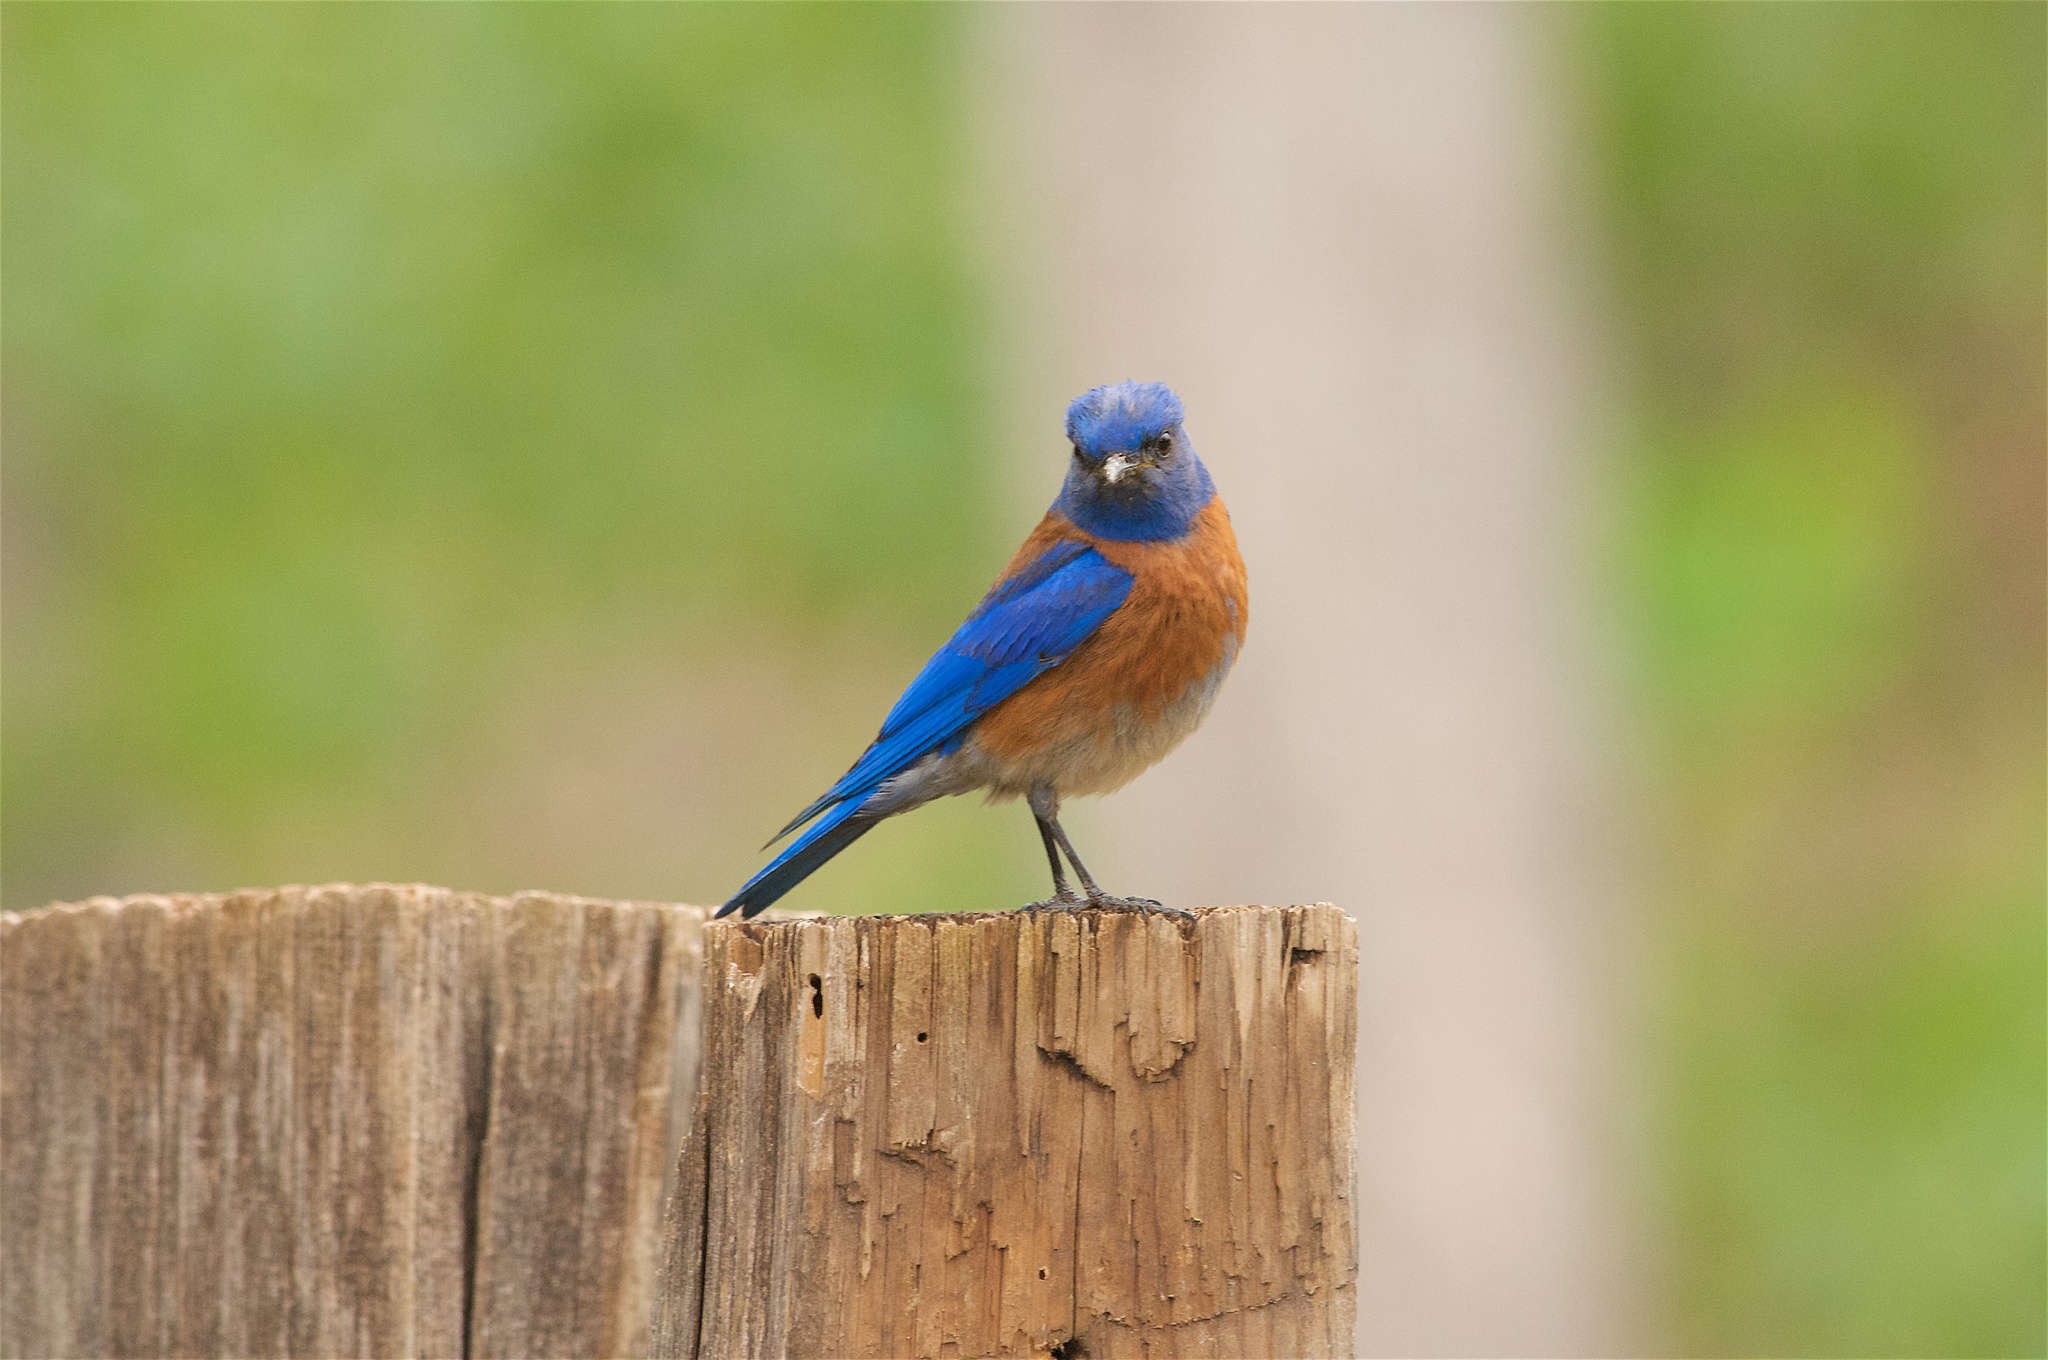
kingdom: Animalia
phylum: Chordata
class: Aves
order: Passeriformes
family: Turdidae
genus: Sialia
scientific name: Sialia mexicana
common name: Western bluebird
